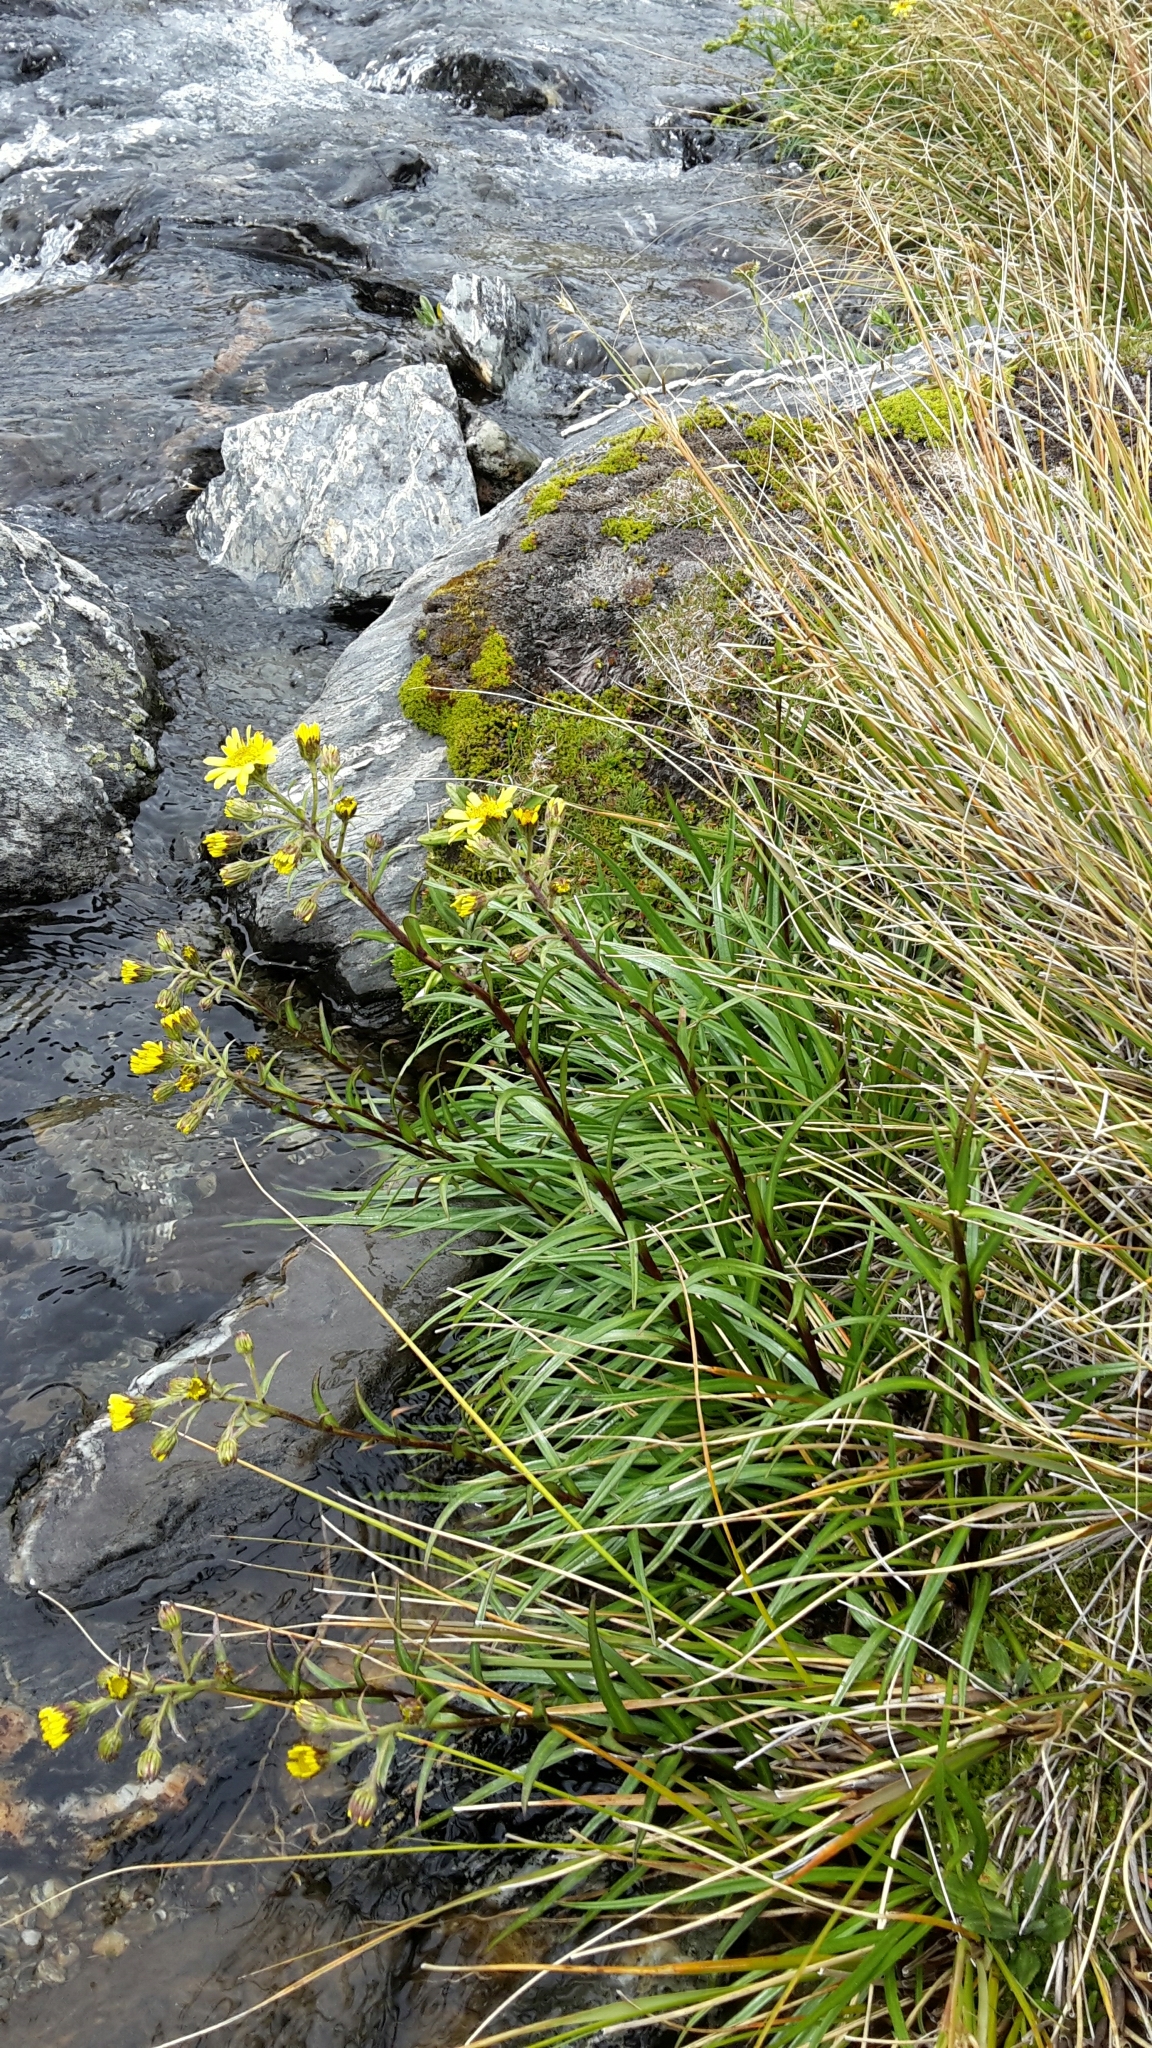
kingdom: Plantae
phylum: Tracheophyta
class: Magnoliopsida
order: Asterales
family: Asteraceae
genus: Dolichoglottis
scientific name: Dolichoglottis lyallii
